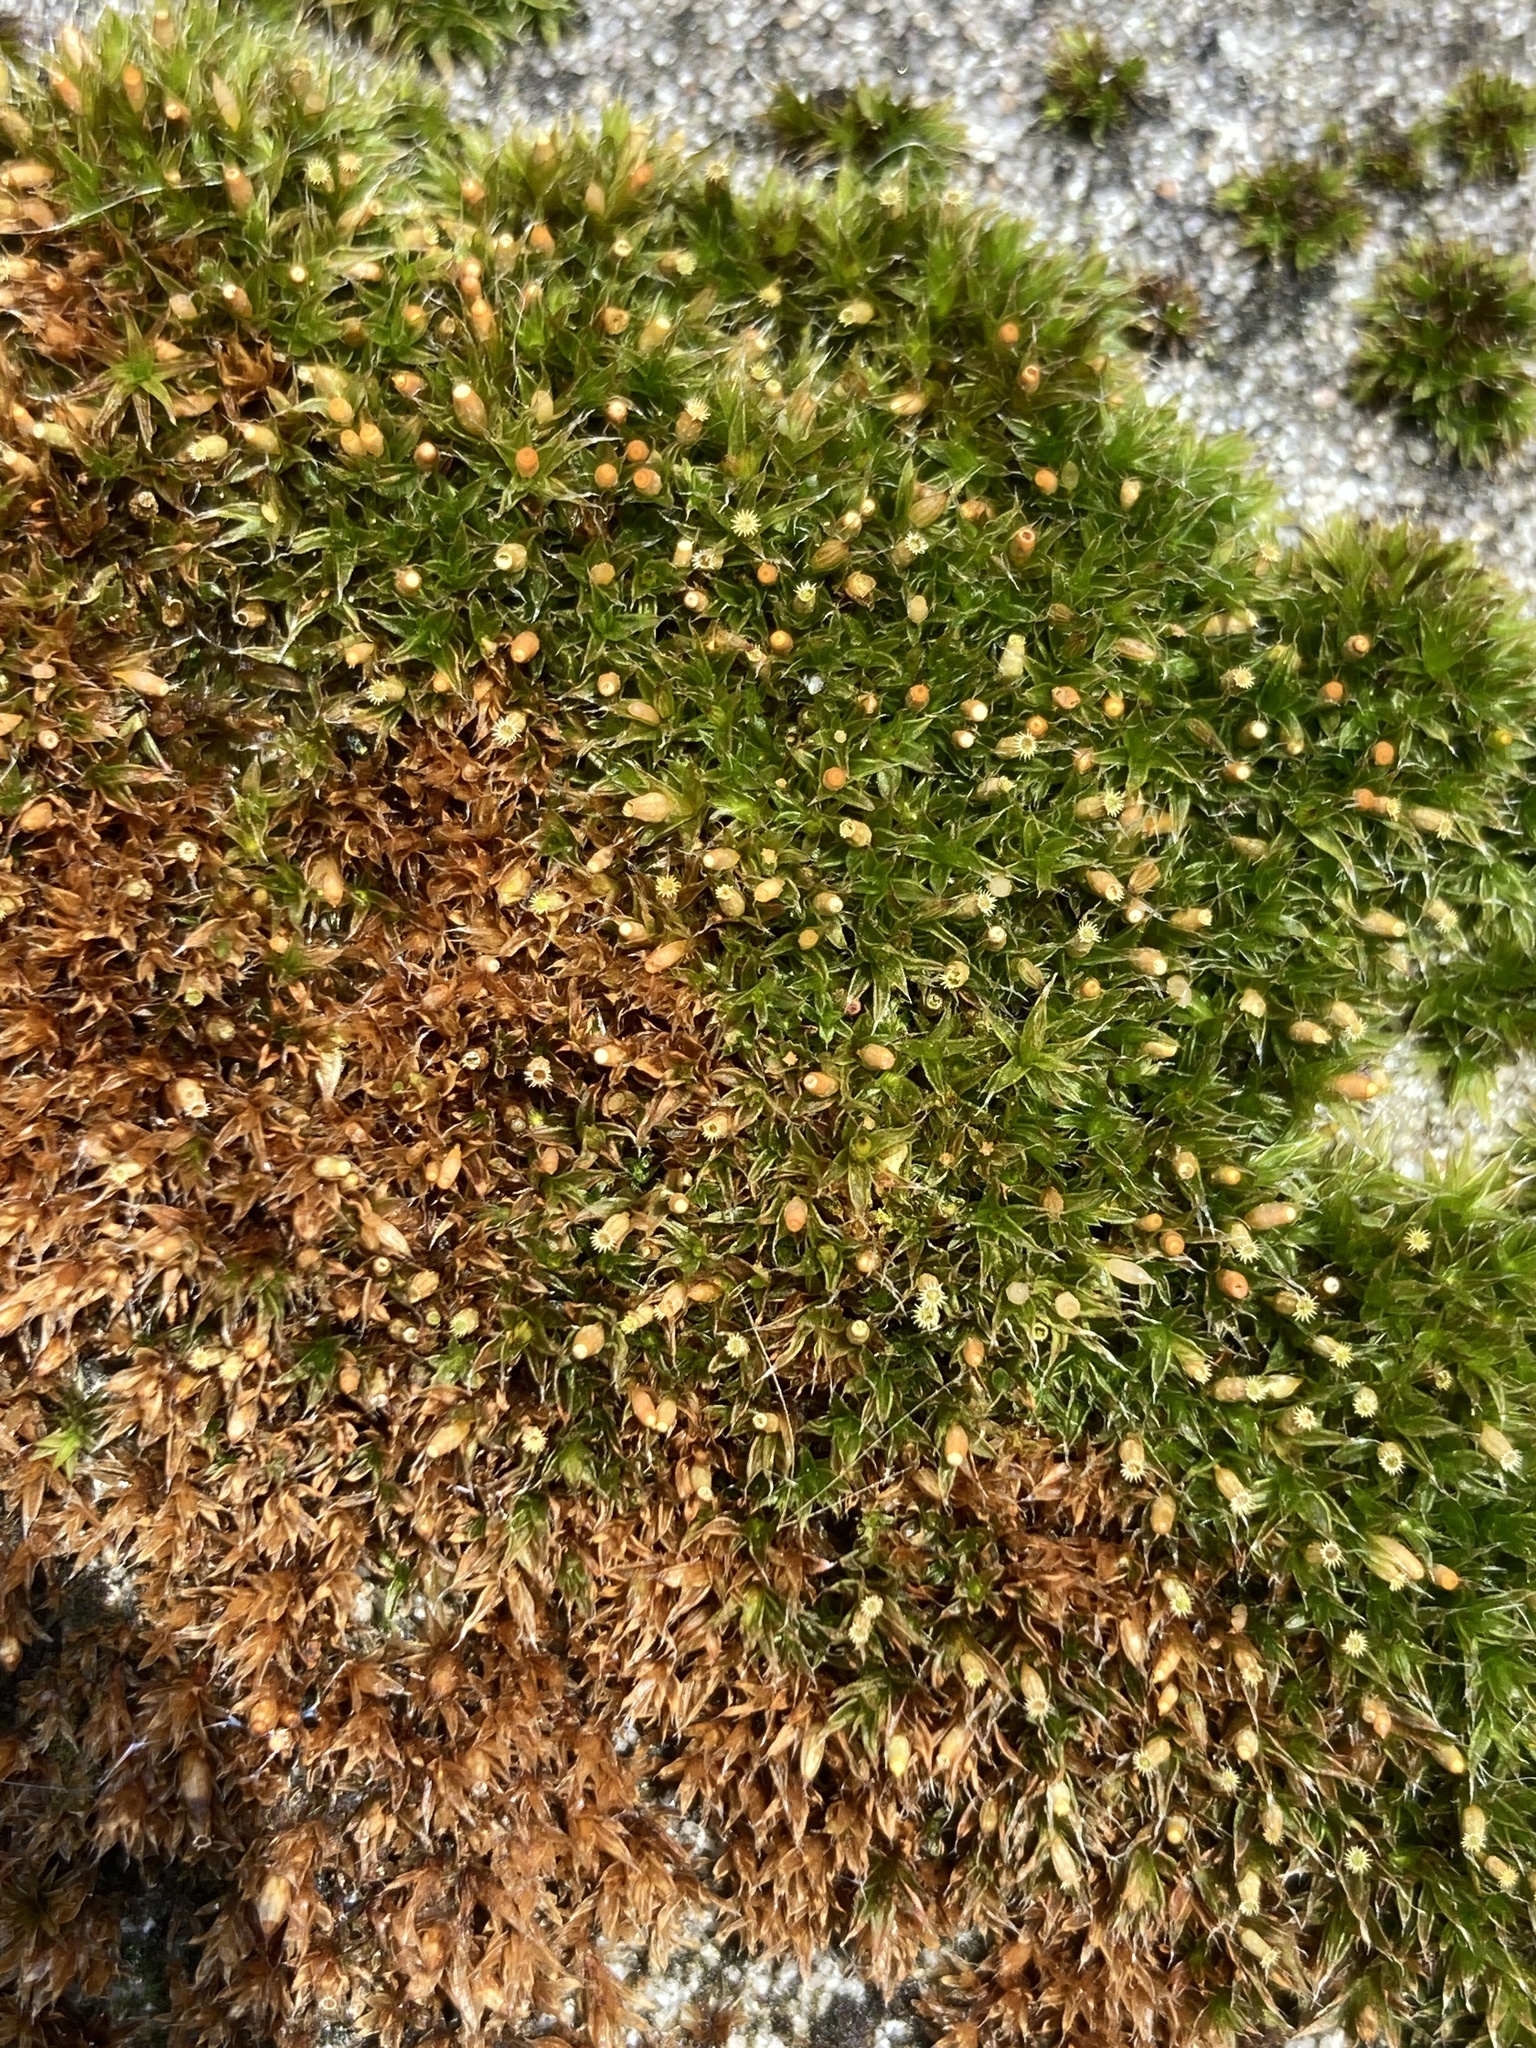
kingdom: Plantae
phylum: Bryophyta
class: Bryopsida
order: Orthotrichales
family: Orthotrichaceae
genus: Orthotrichum
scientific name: Orthotrichum diaphanum
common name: White-tipped bristle-moss
